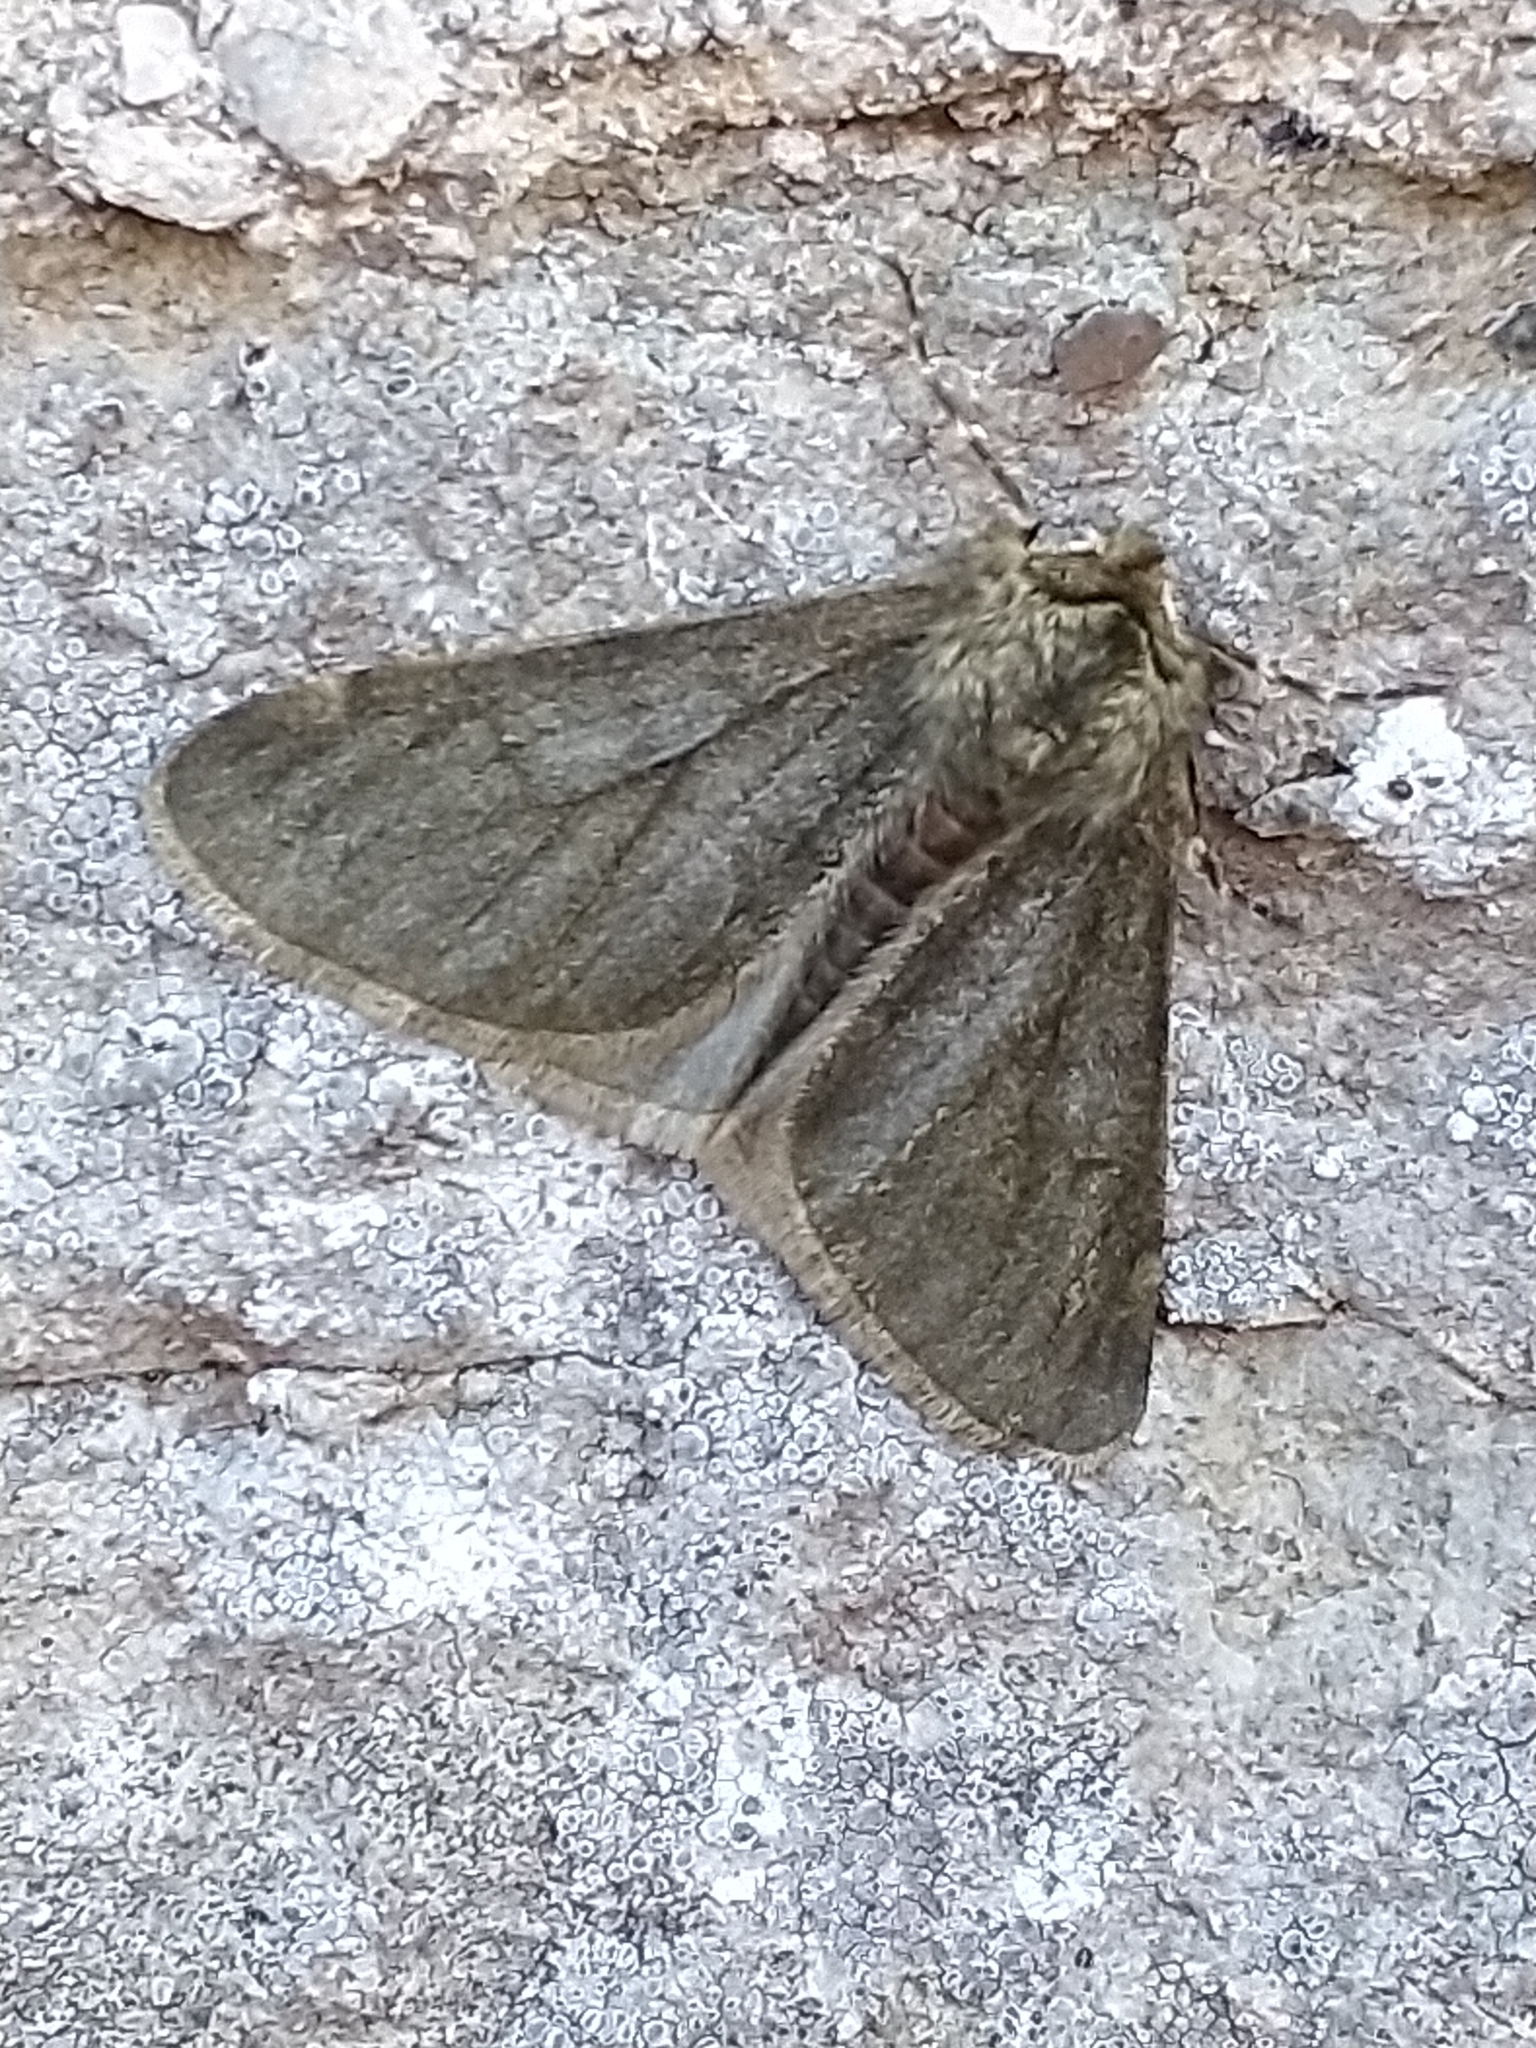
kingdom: Animalia
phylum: Arthropoda
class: Insecta
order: Lepidoptera
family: Geometridae
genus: Phigalia
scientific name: Phigalia pilosaria
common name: Pale brindled beauty
